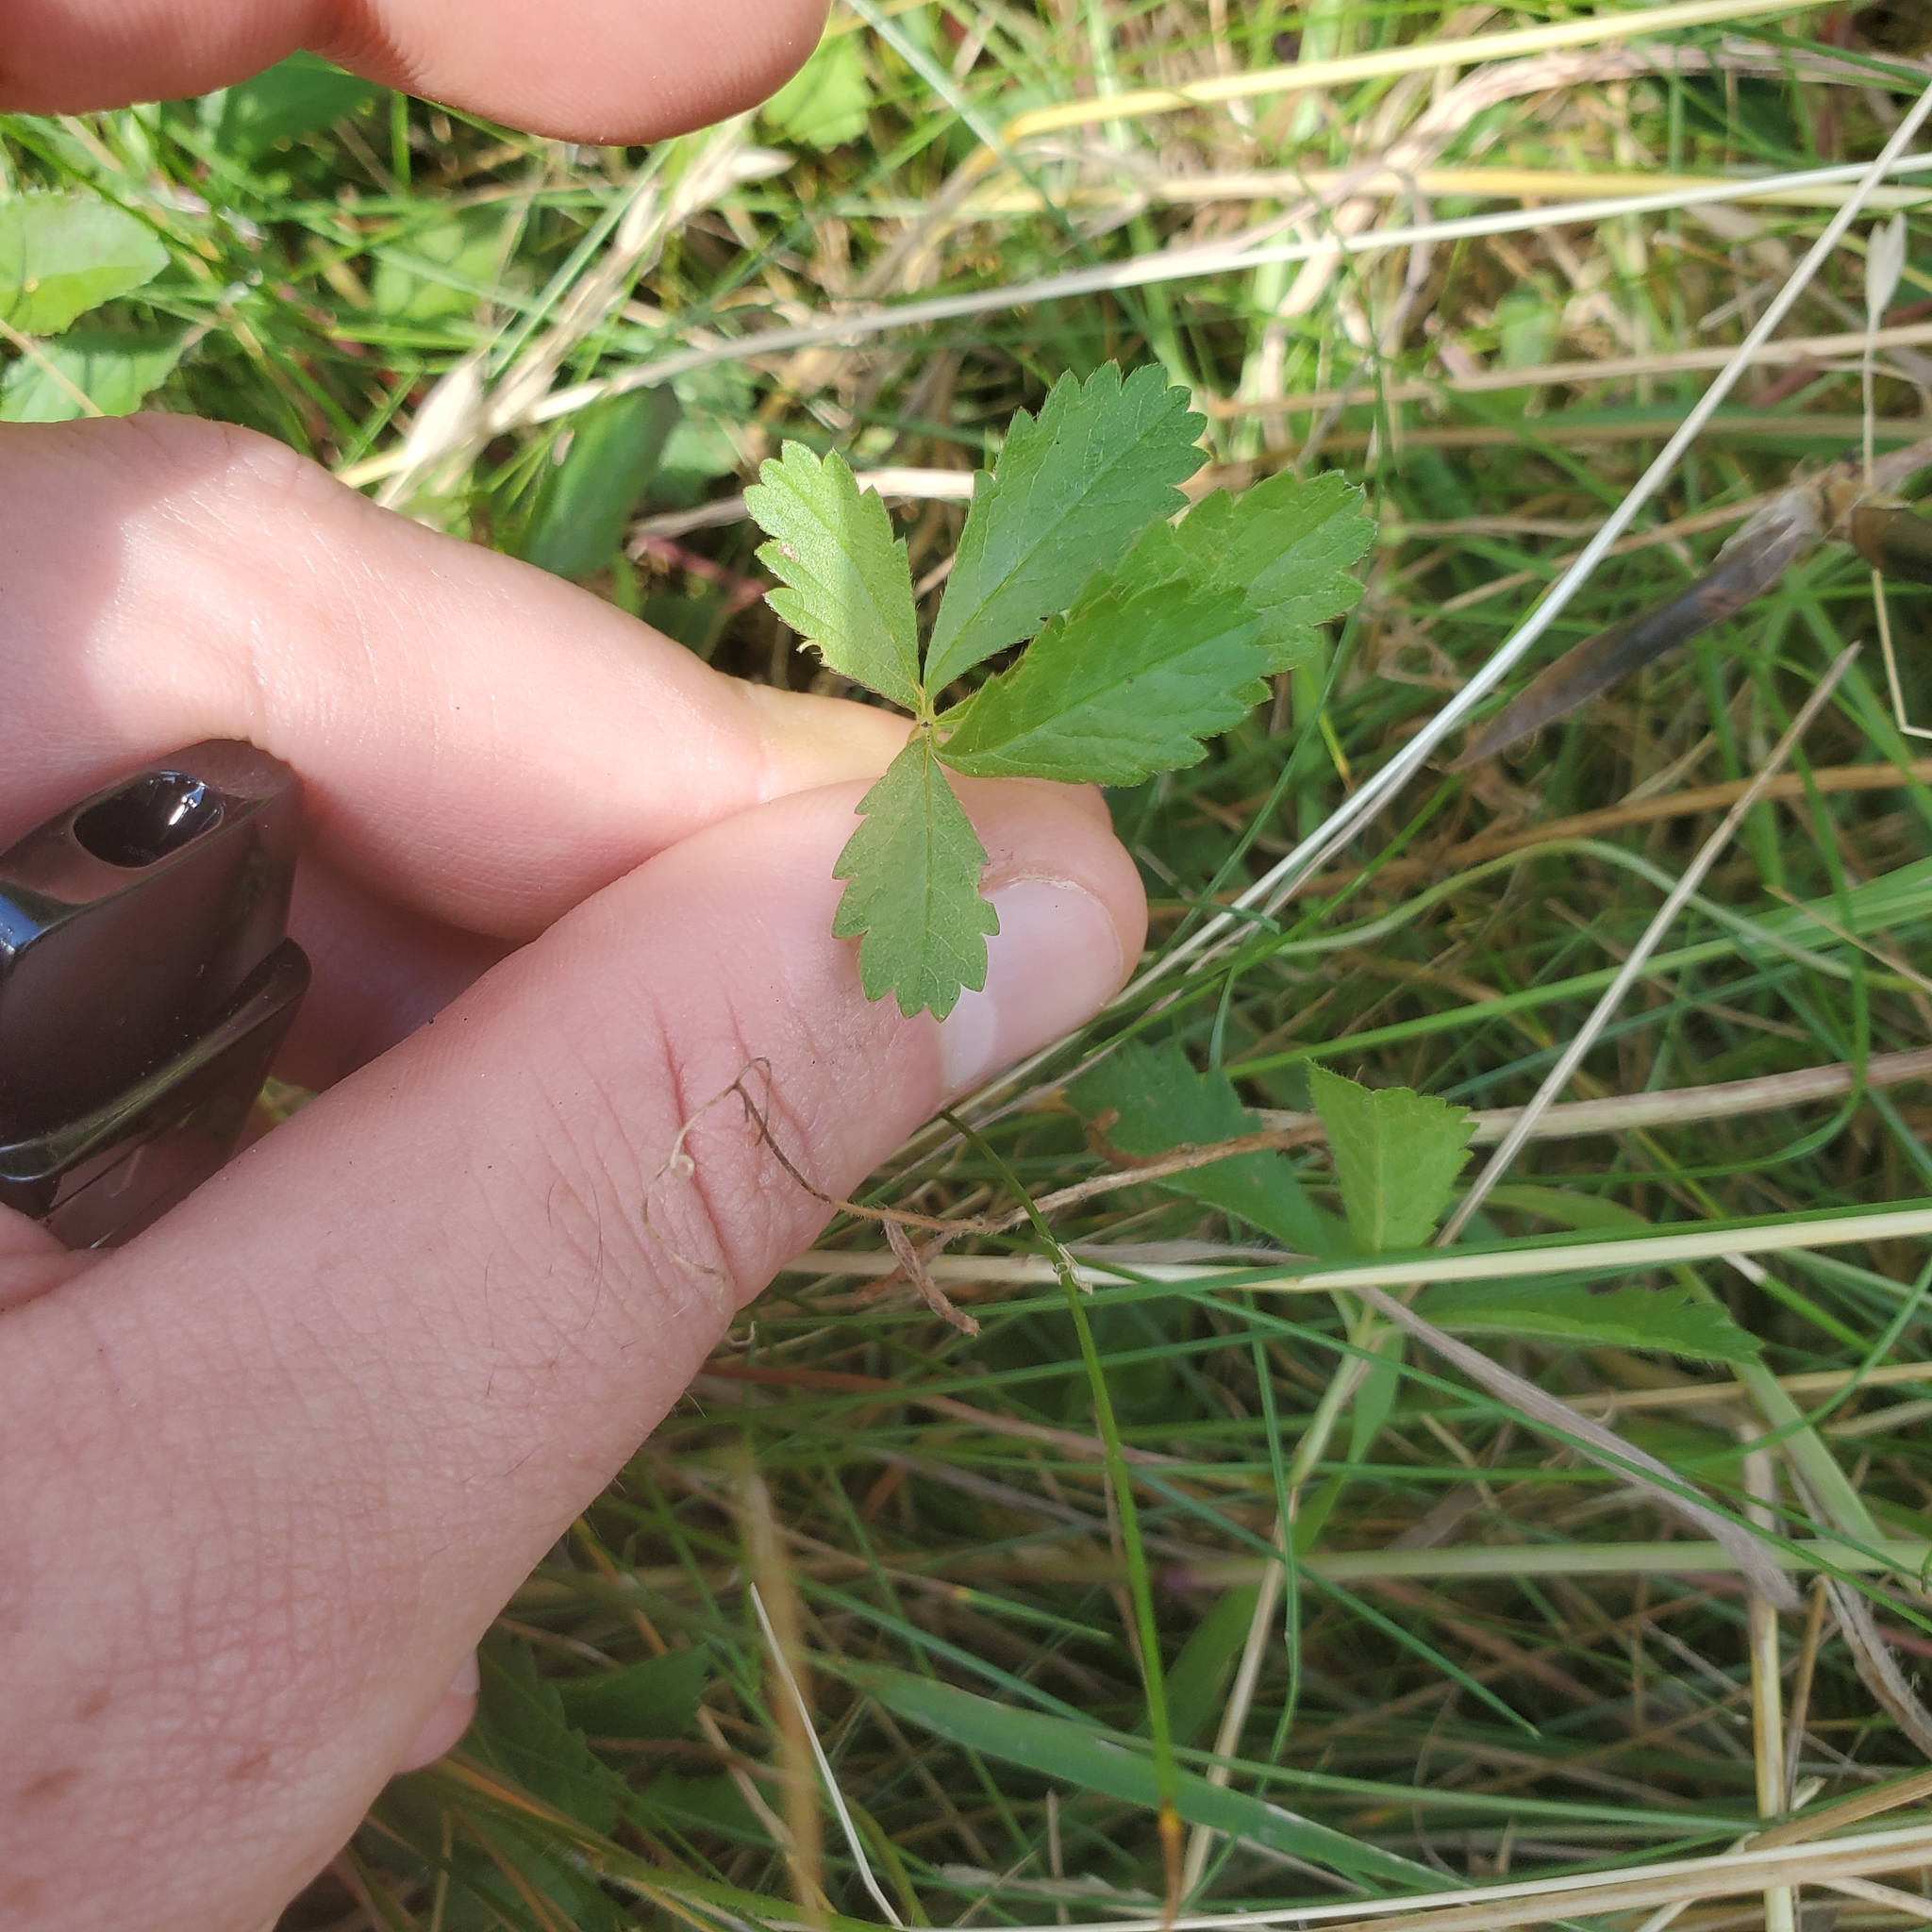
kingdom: Plantae
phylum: Tracheophyta
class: Magnoliopsida
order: Rosales
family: Rosaceae
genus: Potentilla
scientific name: Potentilla reptans
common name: Creeping cinquefoil
